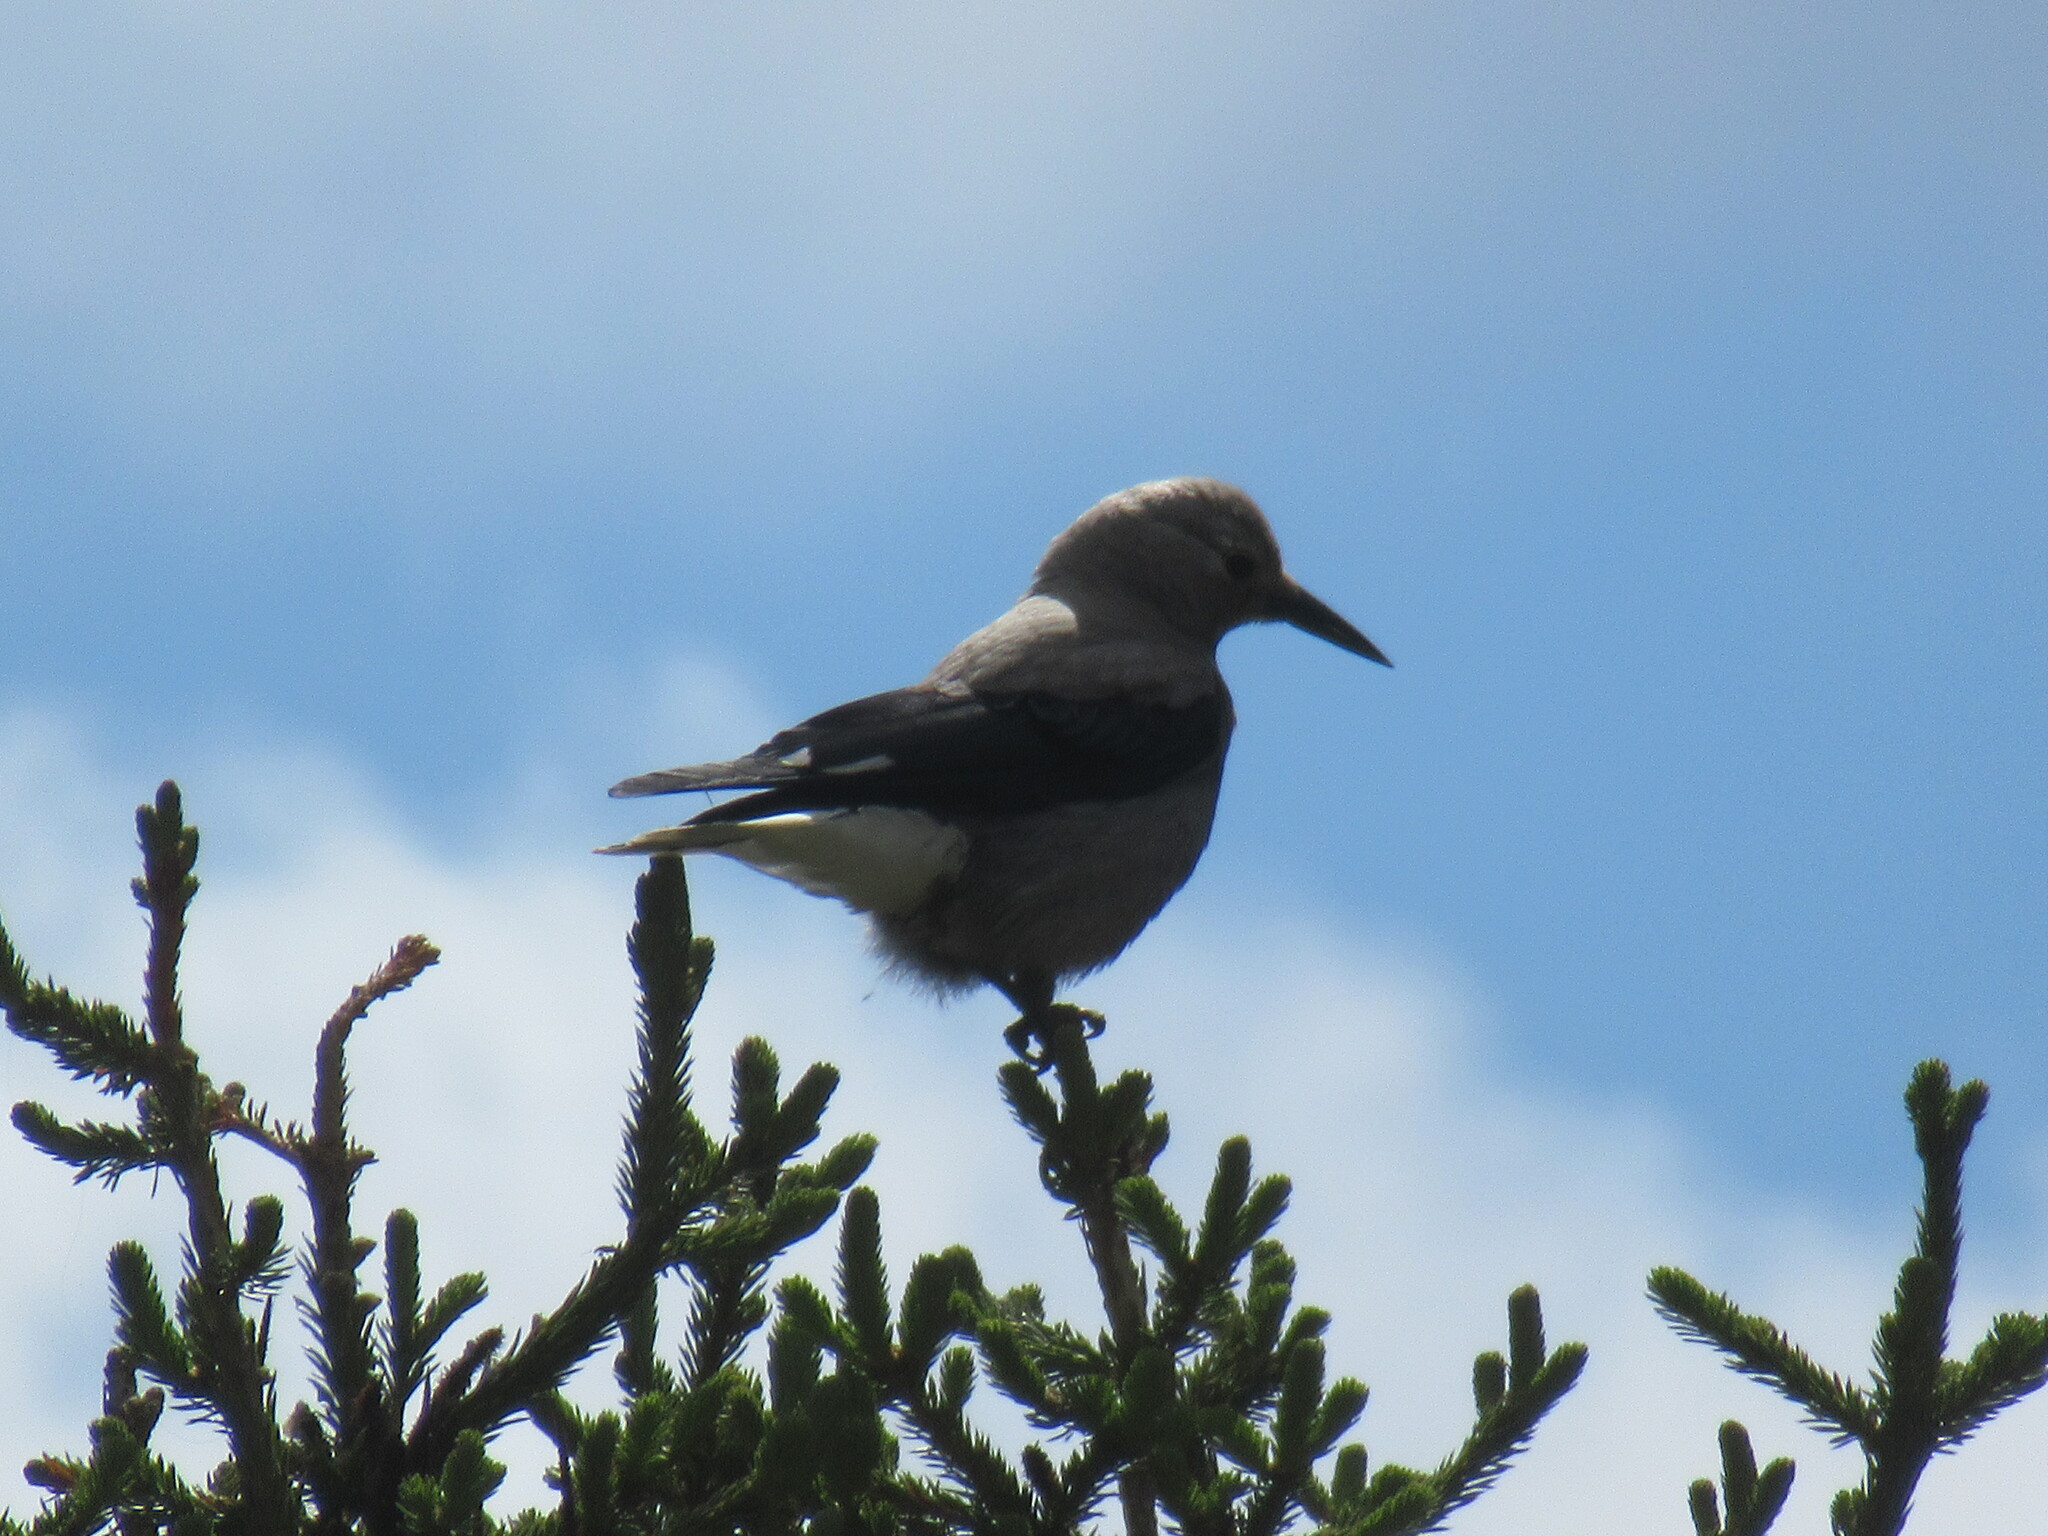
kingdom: Animalia
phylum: Chordata
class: Aves
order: Passeriformes
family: Corvidae
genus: Nucifraga
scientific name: Nucifraga columbiana
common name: Clark's nutcracker
